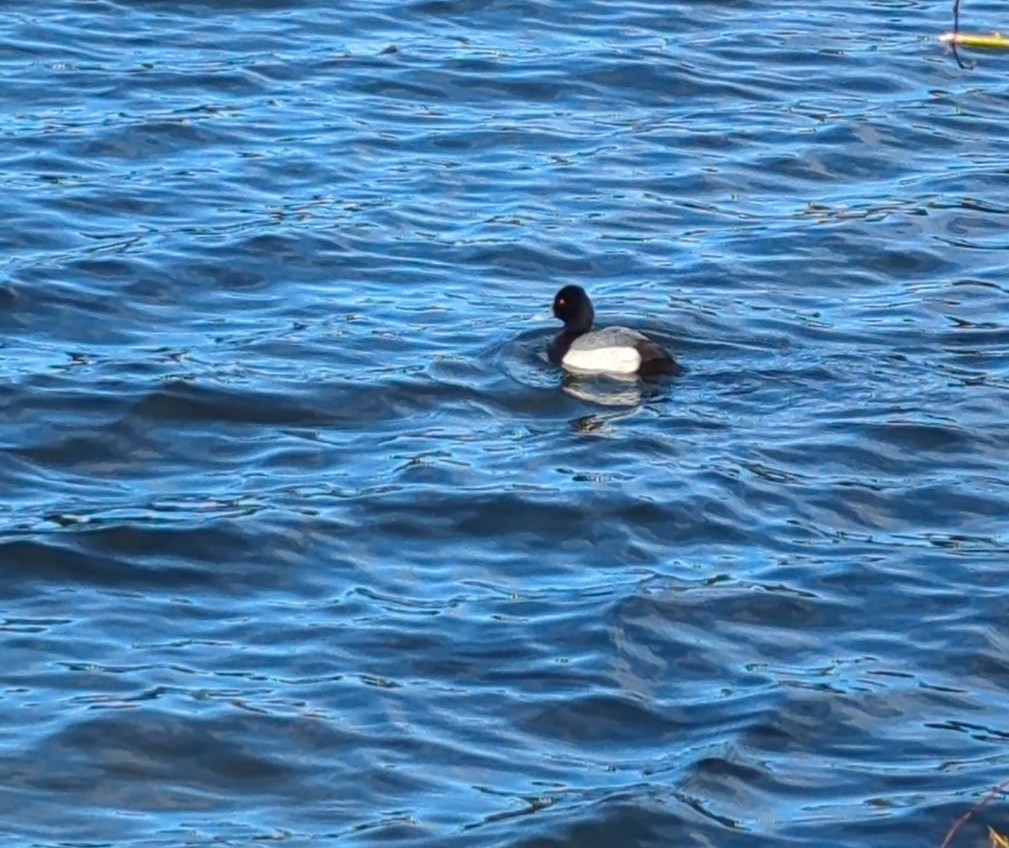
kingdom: Animalia
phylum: Chordata
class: Aves
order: Anseriformes
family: Anatidae
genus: Aythya
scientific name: Aythya affinis
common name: Lesser scaup
